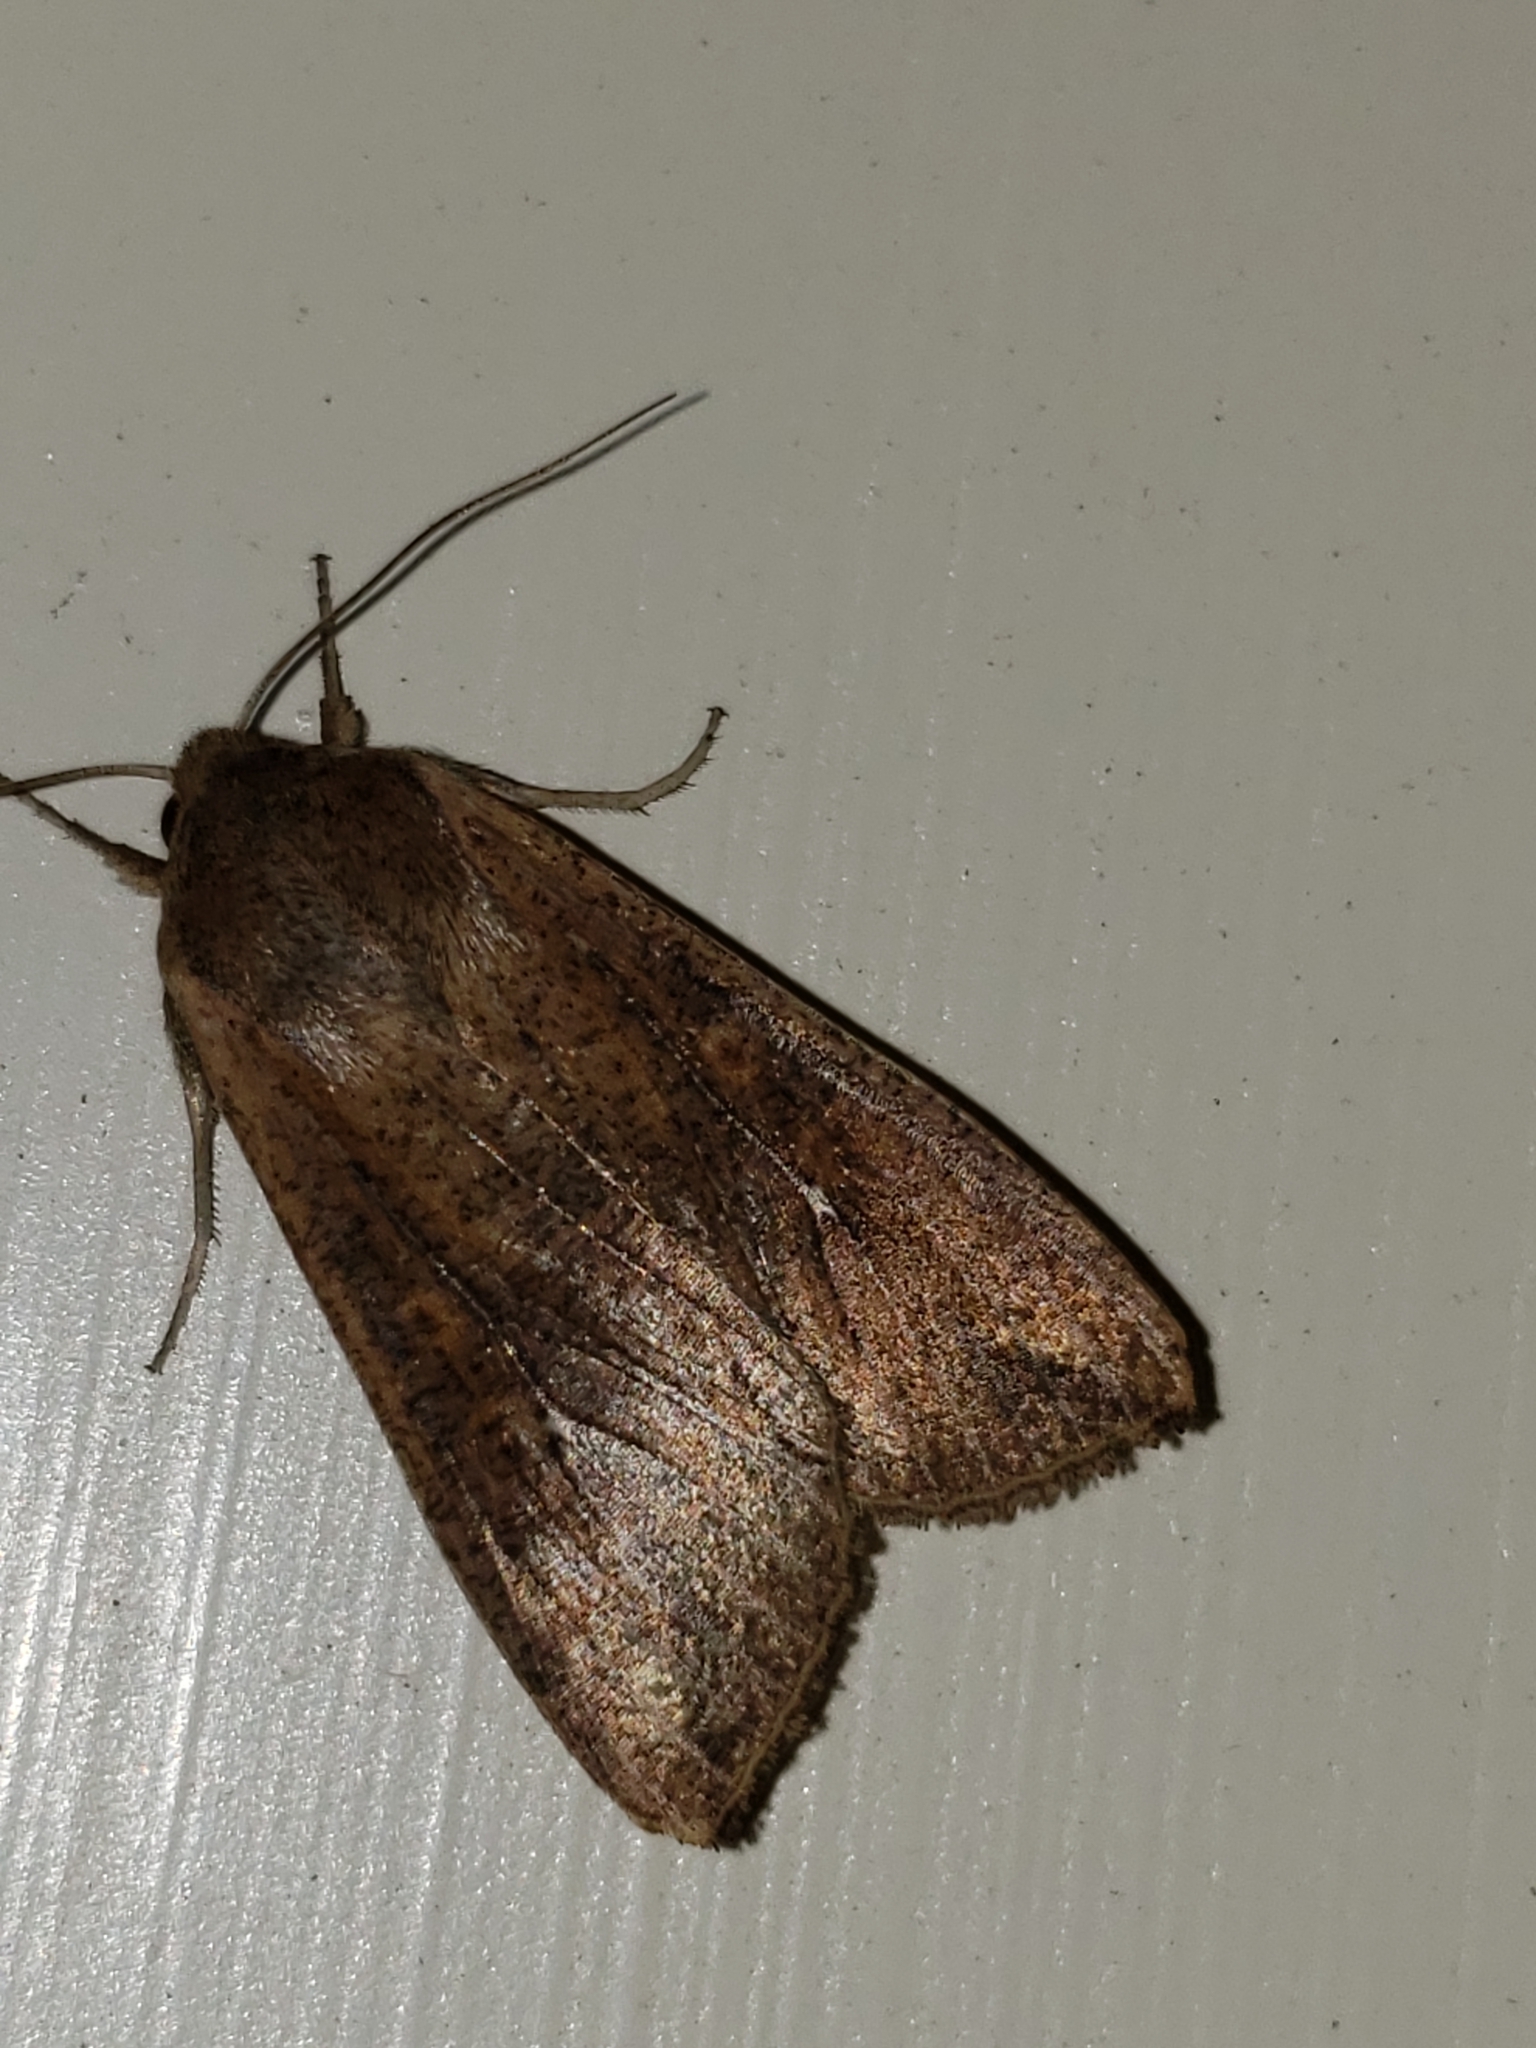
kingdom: Animalia
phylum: Arthropoda
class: Insecta
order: Lepidoptera
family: Noctuidae
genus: Mythimna
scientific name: Mythimna unipuncta
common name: White-speck
